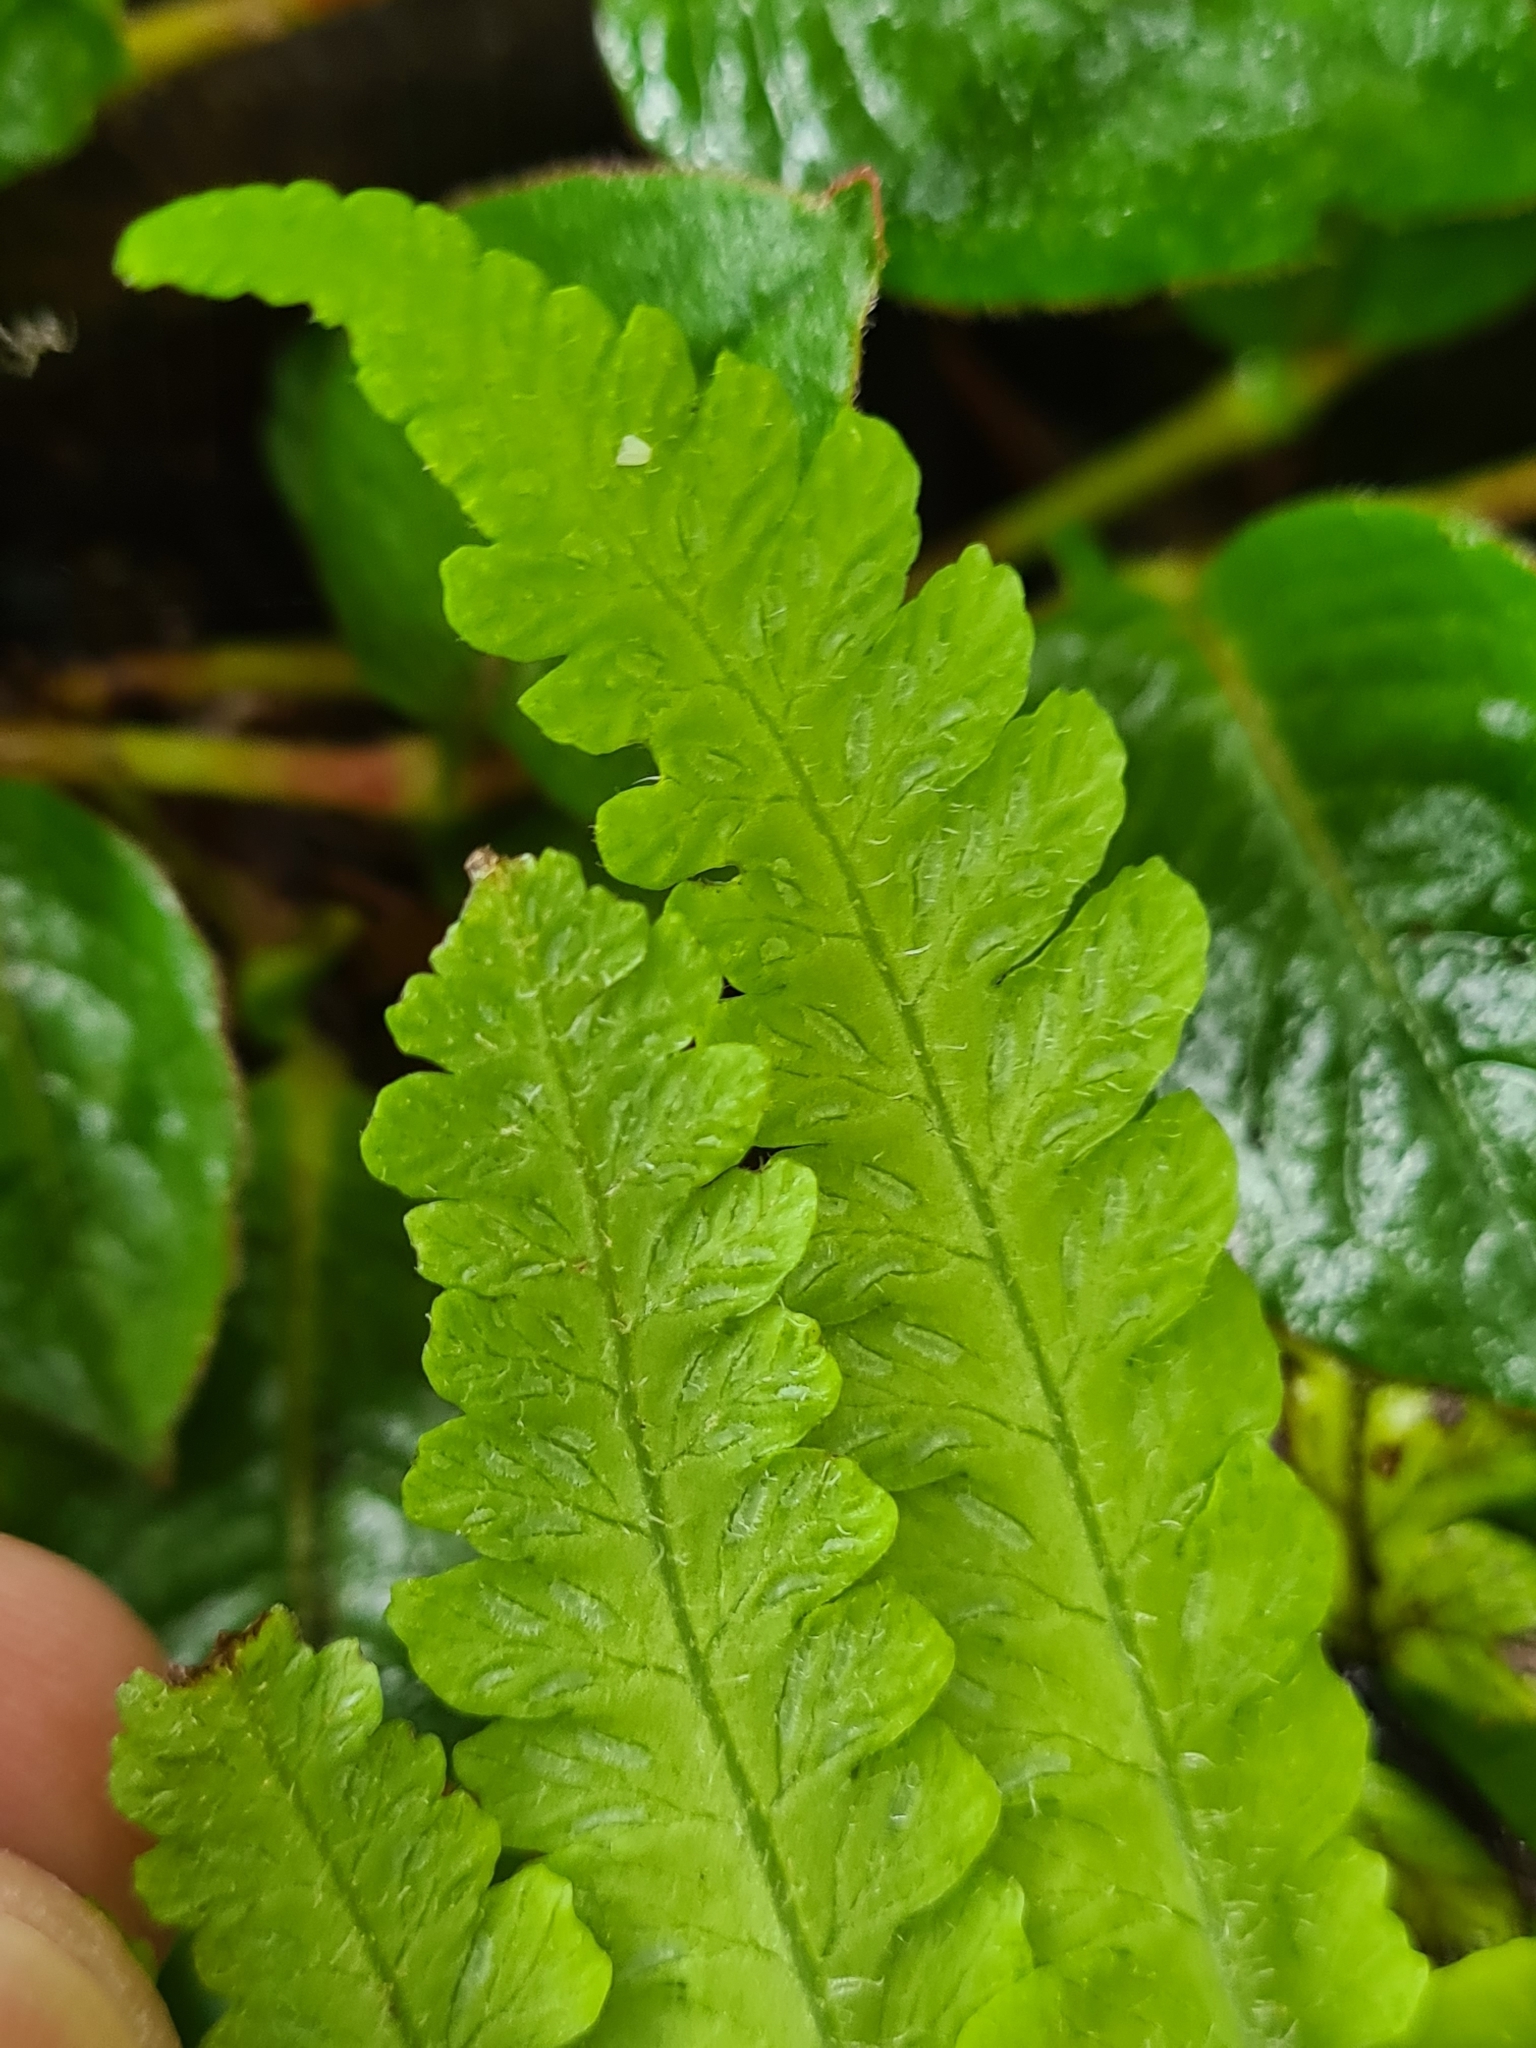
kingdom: Plantae
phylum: Tracheophyta
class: Polypodiopsida
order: Polypodiales
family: Athyriaceae
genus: Deparia
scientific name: Deparia petersenii
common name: Japanese false spleenwort
